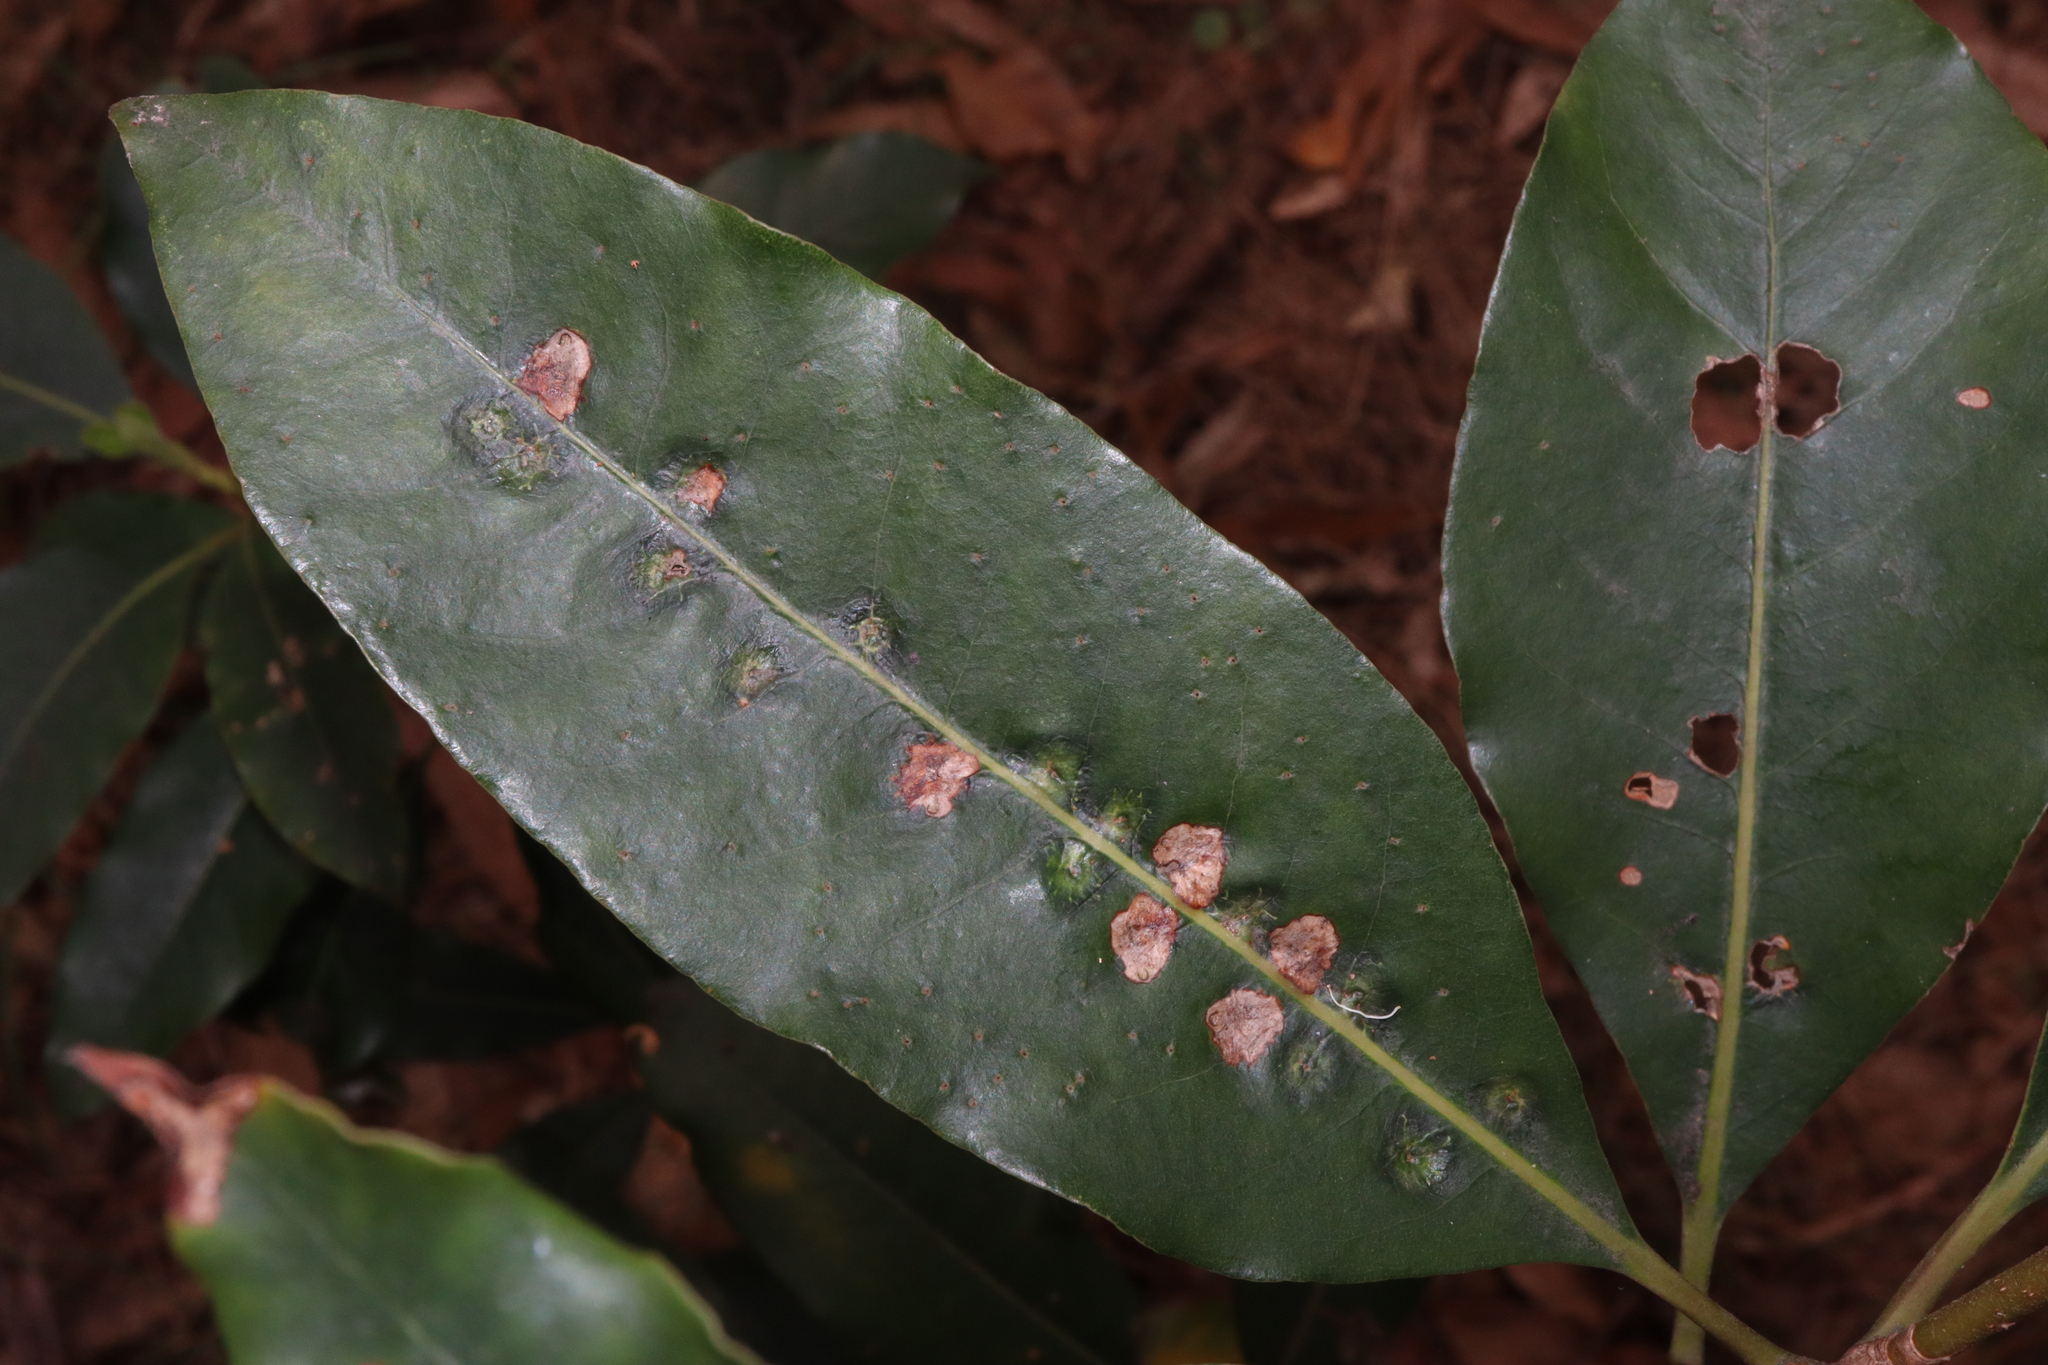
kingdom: Animalia
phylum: Arthropoda
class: Insecta
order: Diptera
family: Agromyzidae
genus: Phytoliriomyza
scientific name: Phytoliriomyza pittosporophylli
